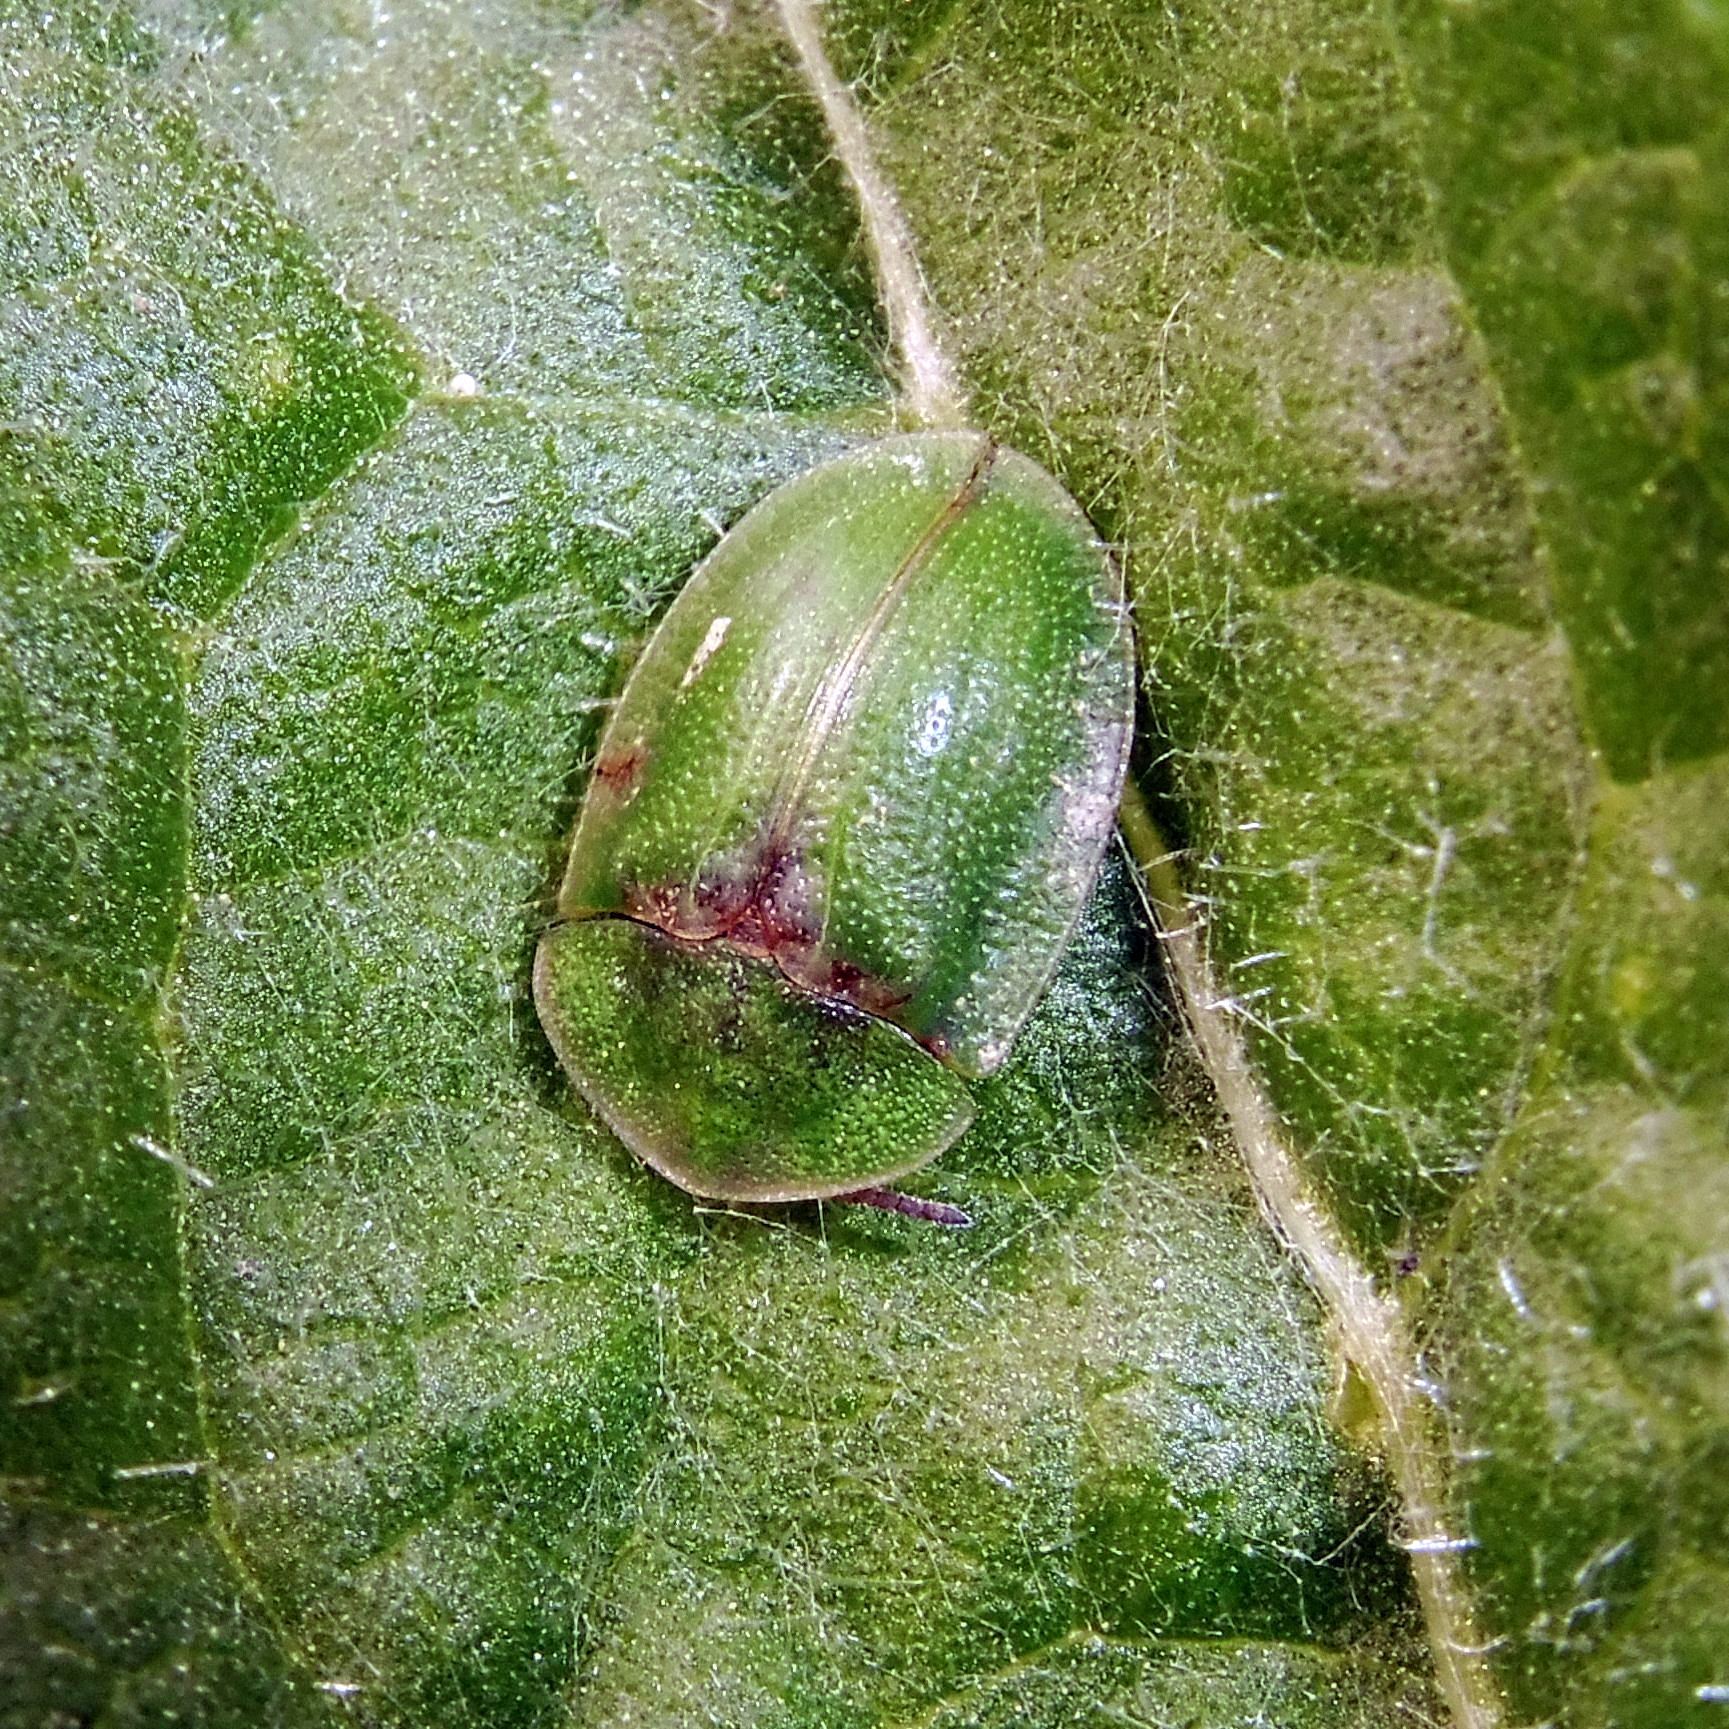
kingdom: Animalia
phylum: Arthropoda
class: Insecta
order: Coleoptera
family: Chrysomelidae
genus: Cassida
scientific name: Cassida rubiginosa
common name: Thistle tortoise beetle
